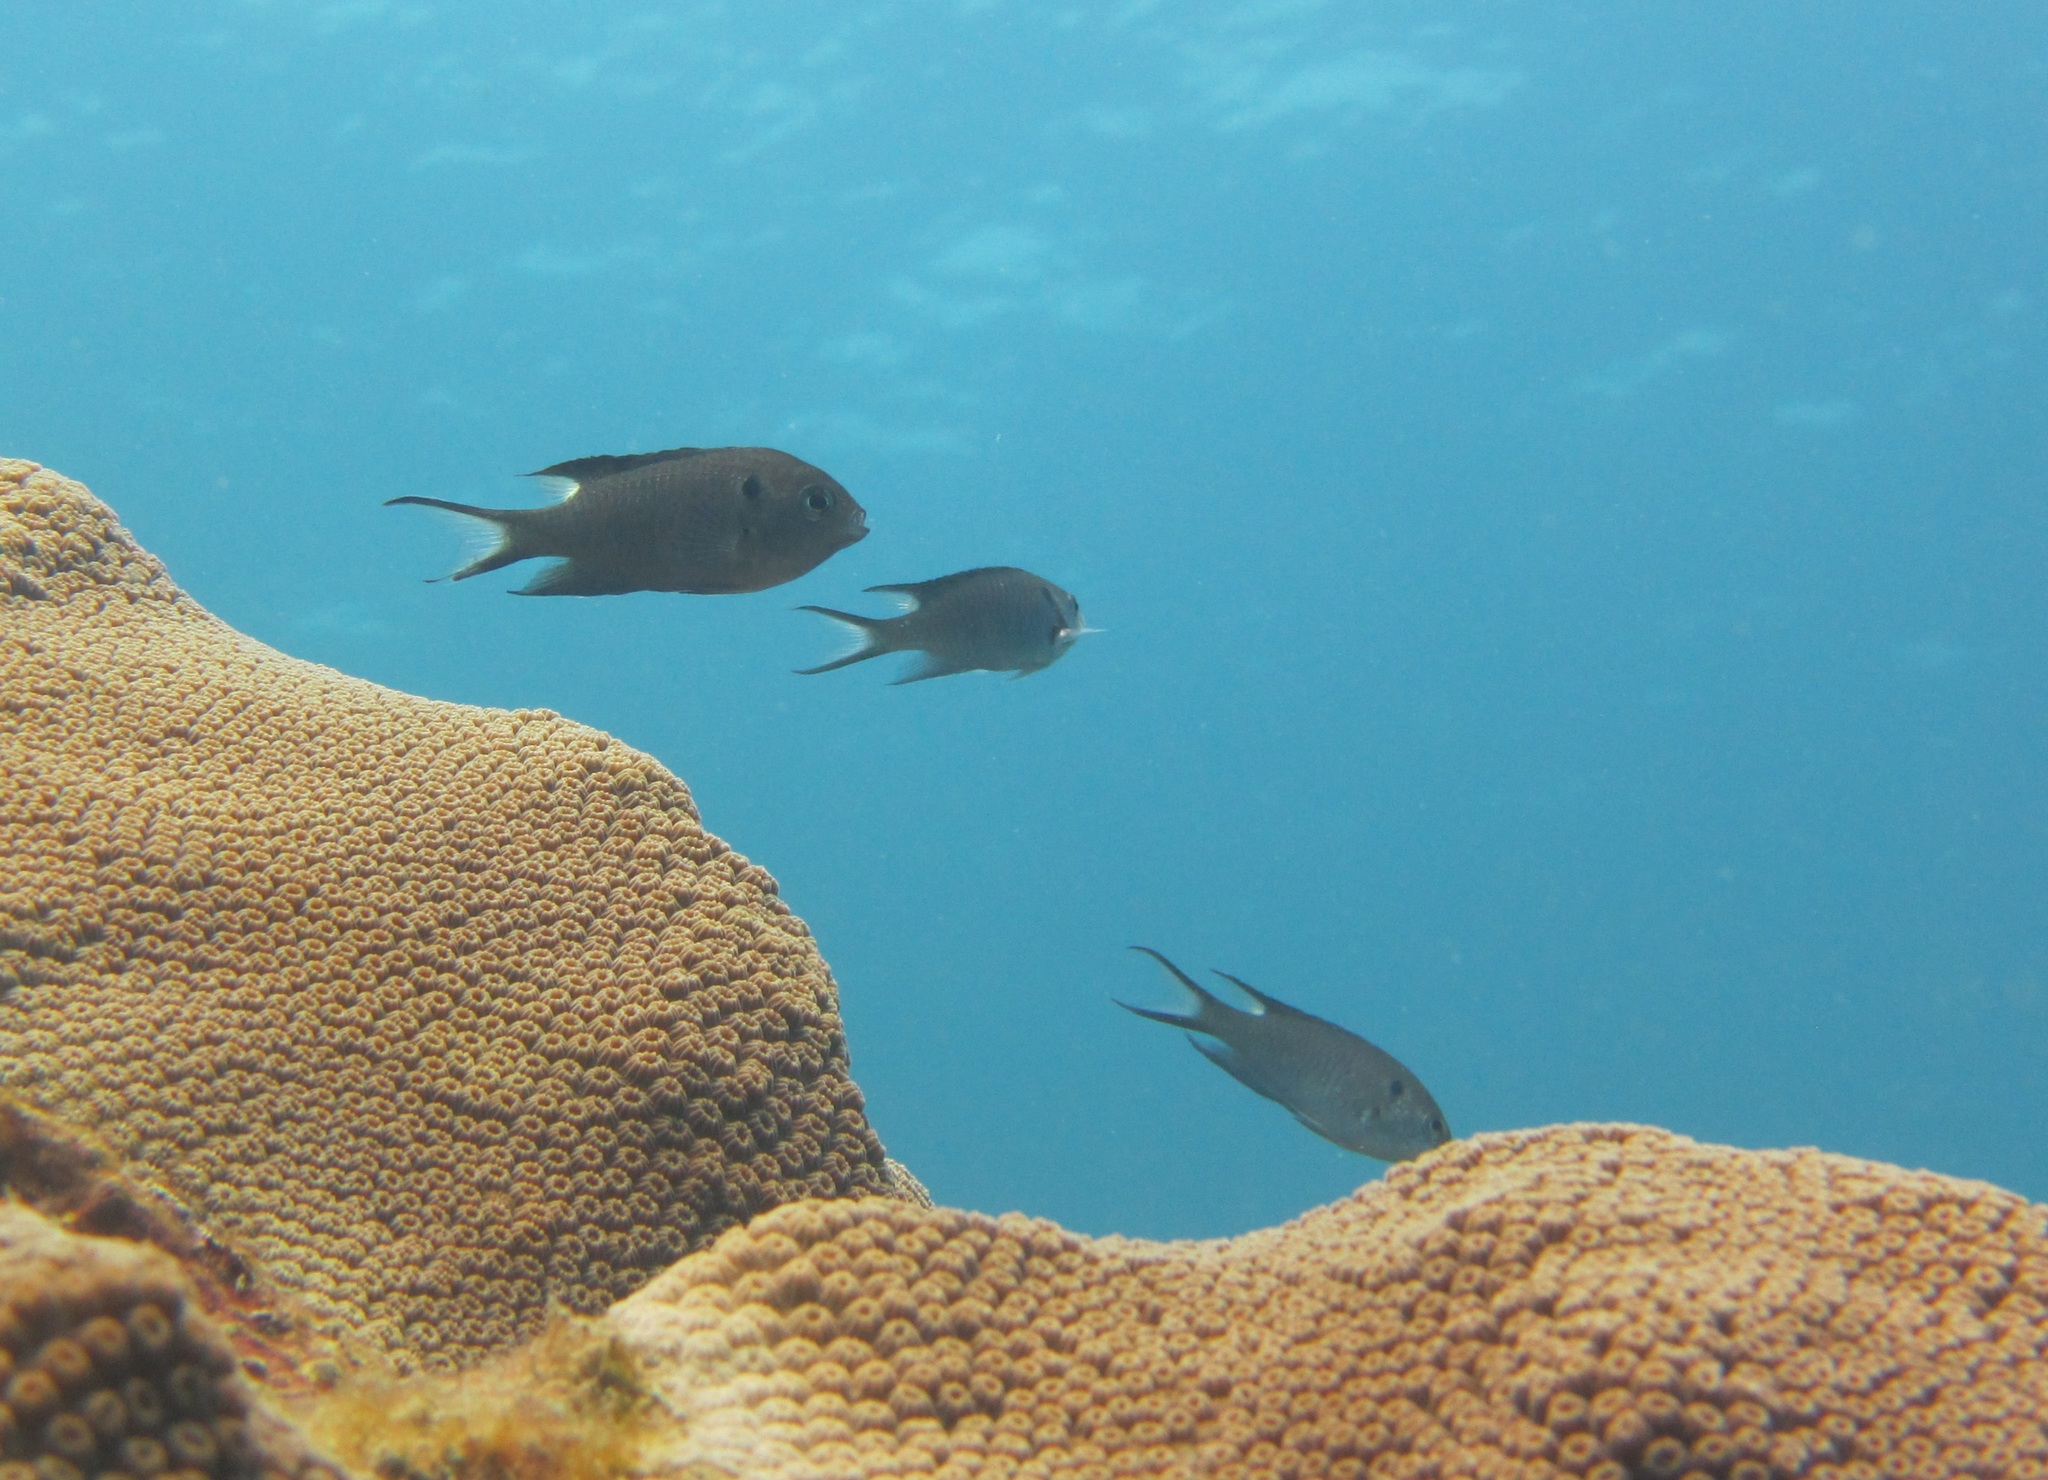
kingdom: Animalia
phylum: Chordata
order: Perciformes
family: Pomacentridae
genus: Neopomacentrus
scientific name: Neopomacentrus cyanomos
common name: Regal demoiselle
